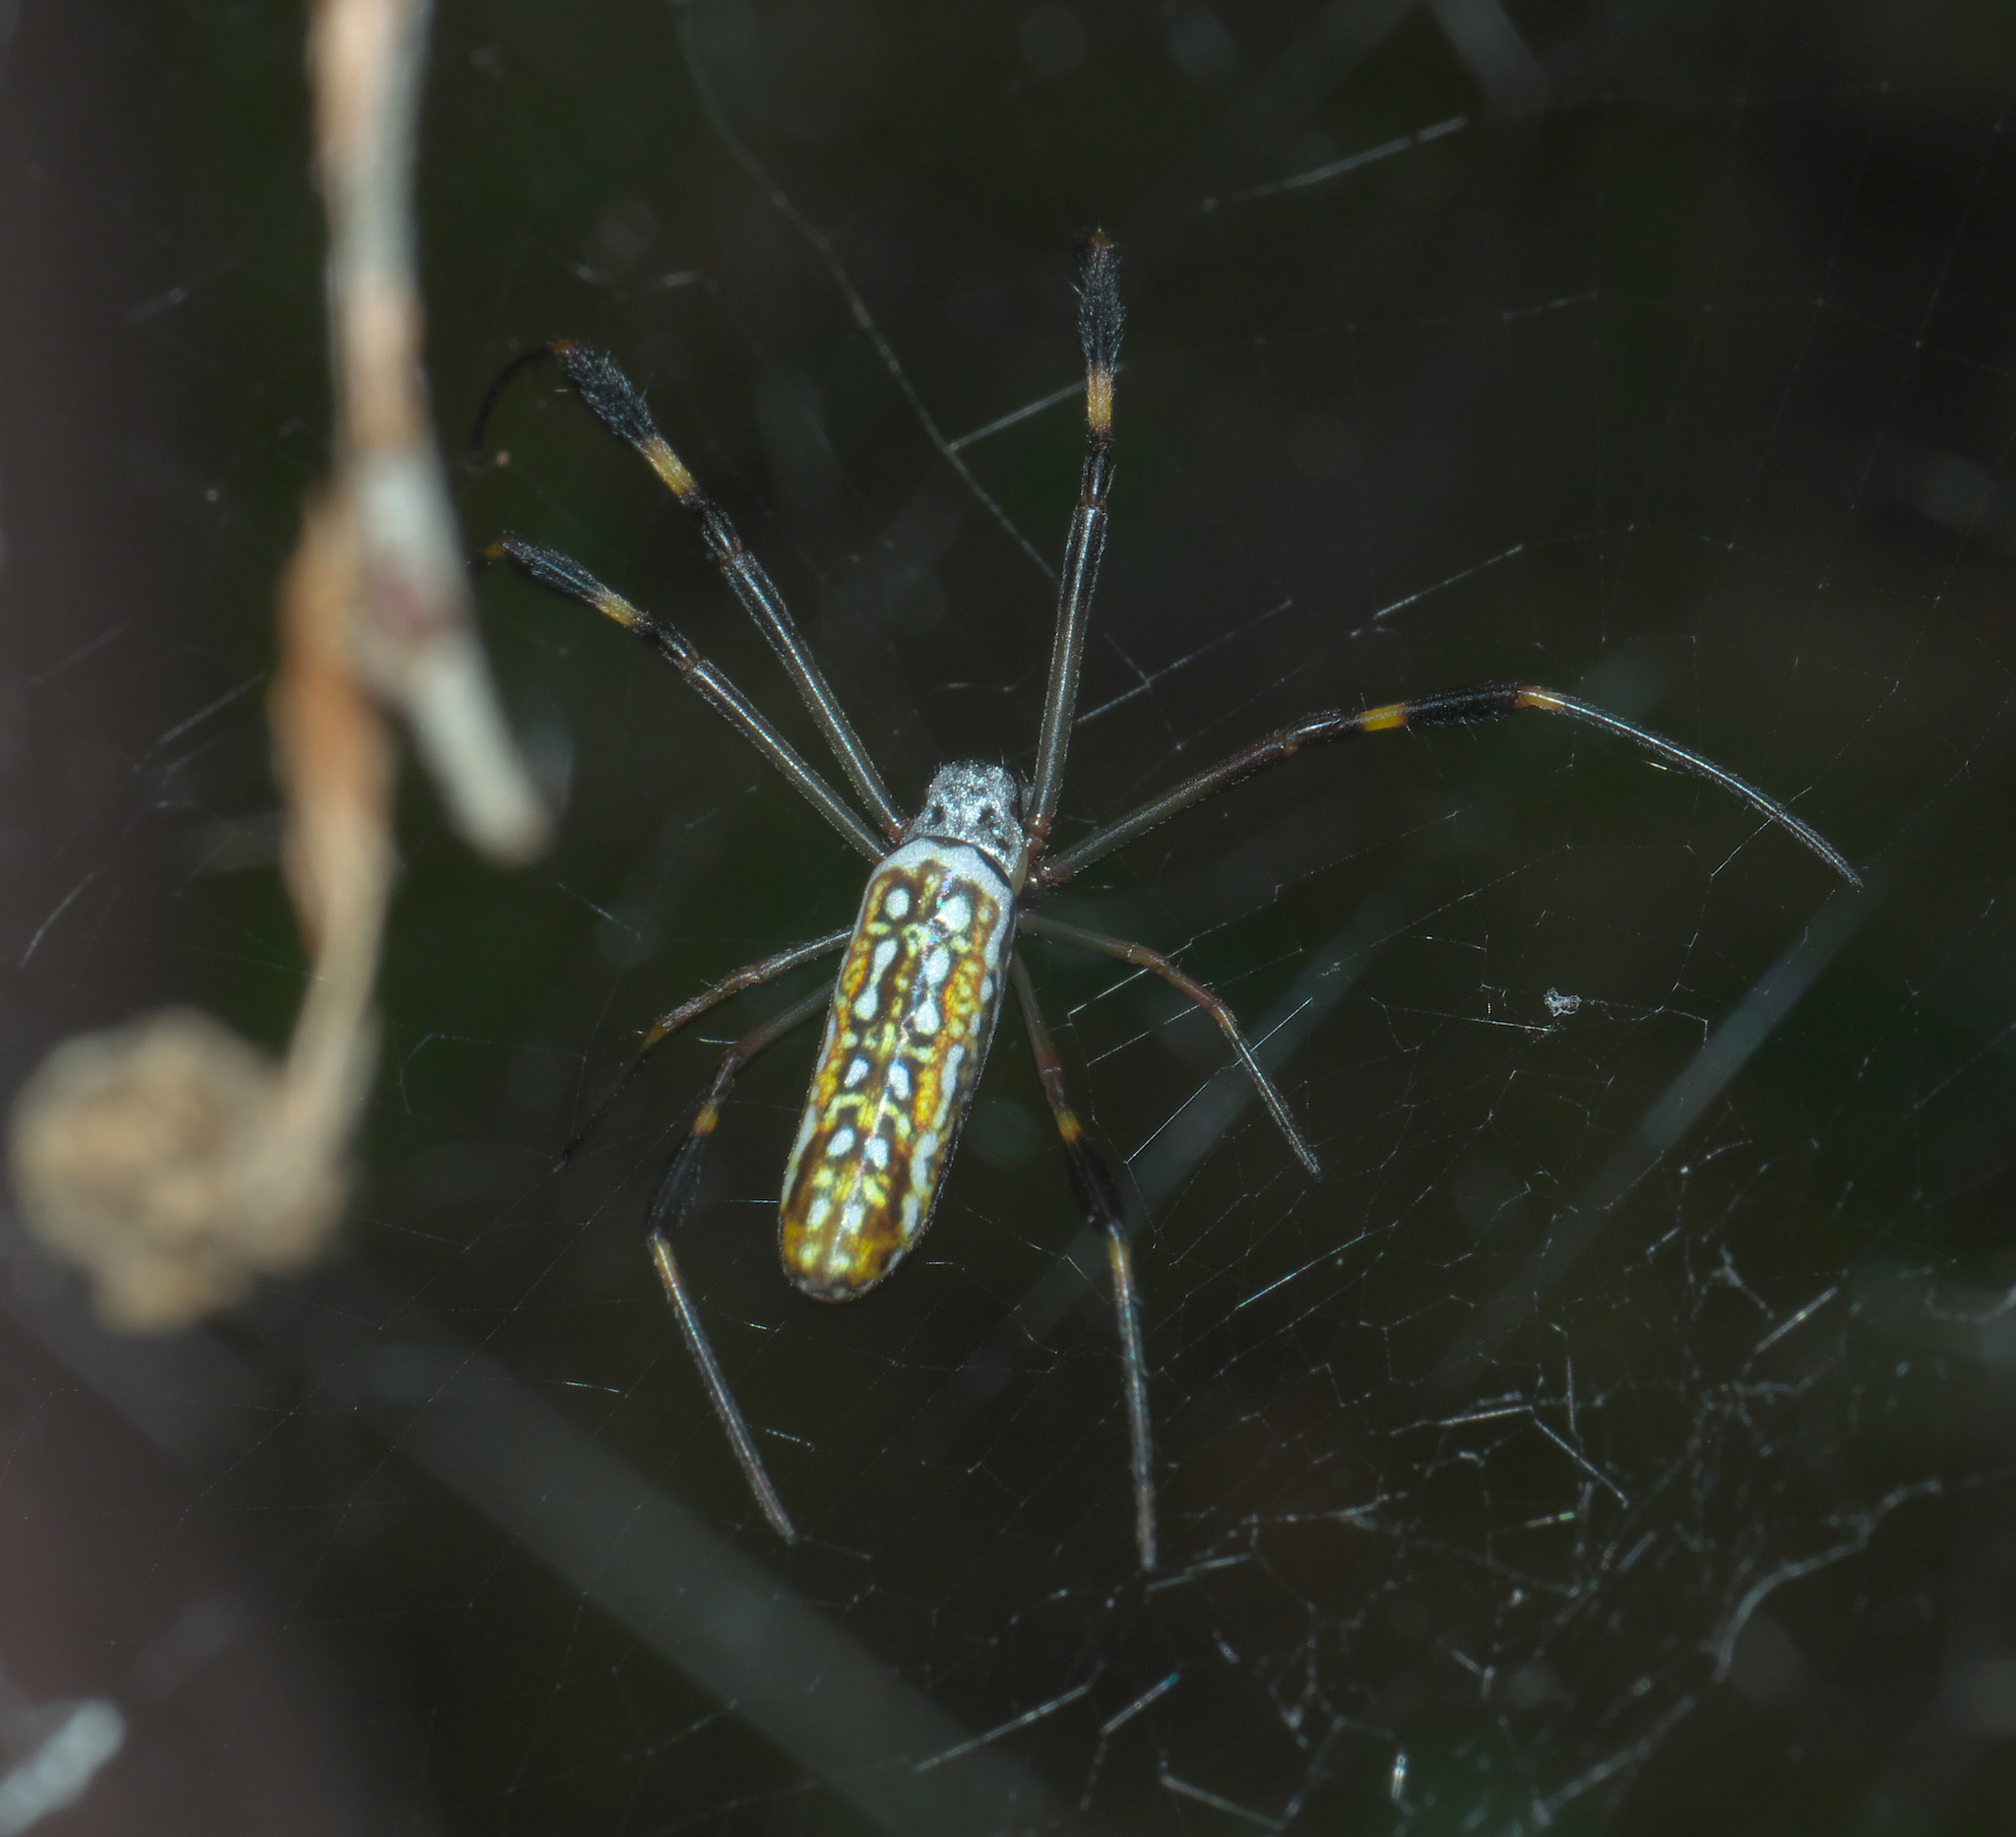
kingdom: Animalia
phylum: Arthropoda
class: Arachnida
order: Araneae
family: Araneidae
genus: Trichonephila
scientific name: Trichonephila clavipes
